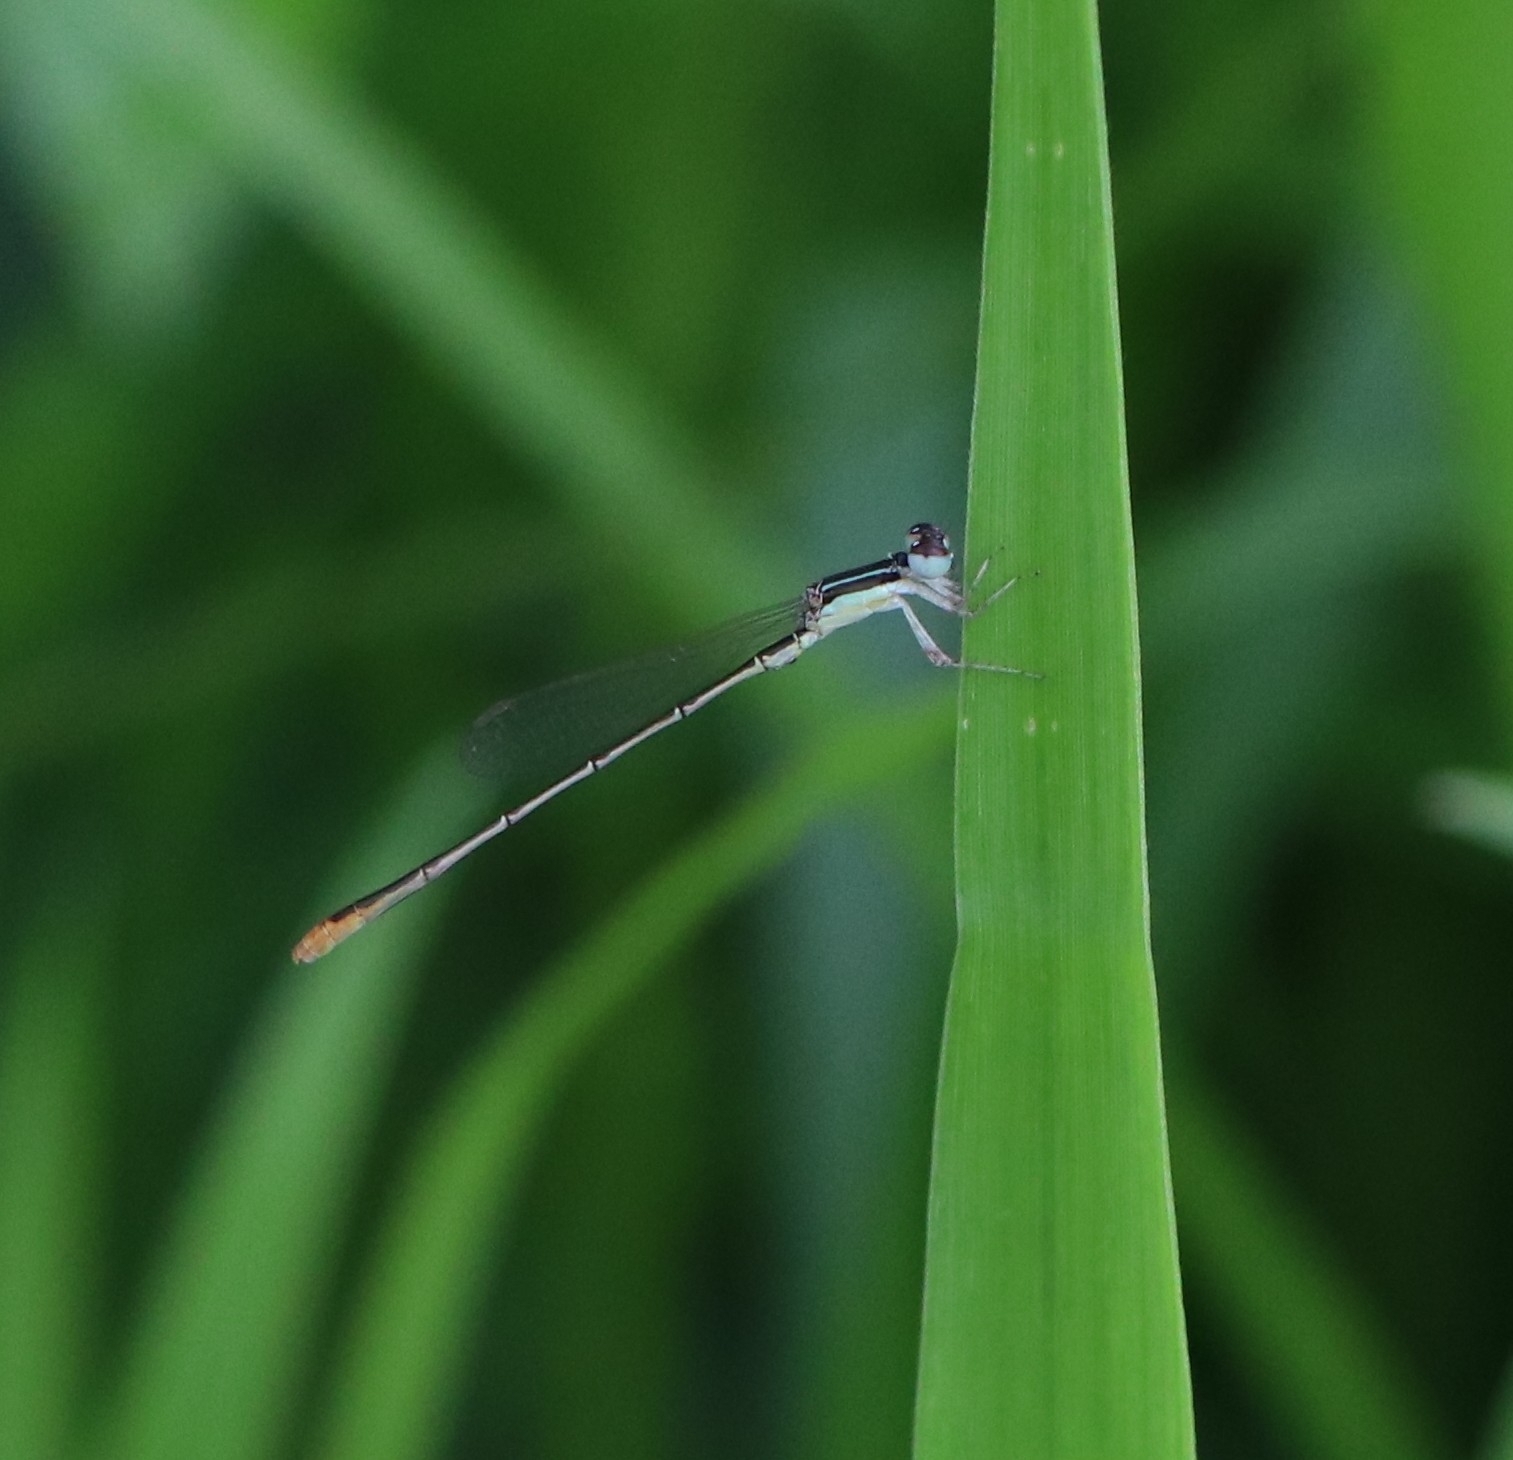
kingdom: Animalia
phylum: Arthropoda
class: Insecta
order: Odonata
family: Coenagrionidae
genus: Agriocnemis
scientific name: Agriocnemis pygmaea
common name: Pygmy wisp
